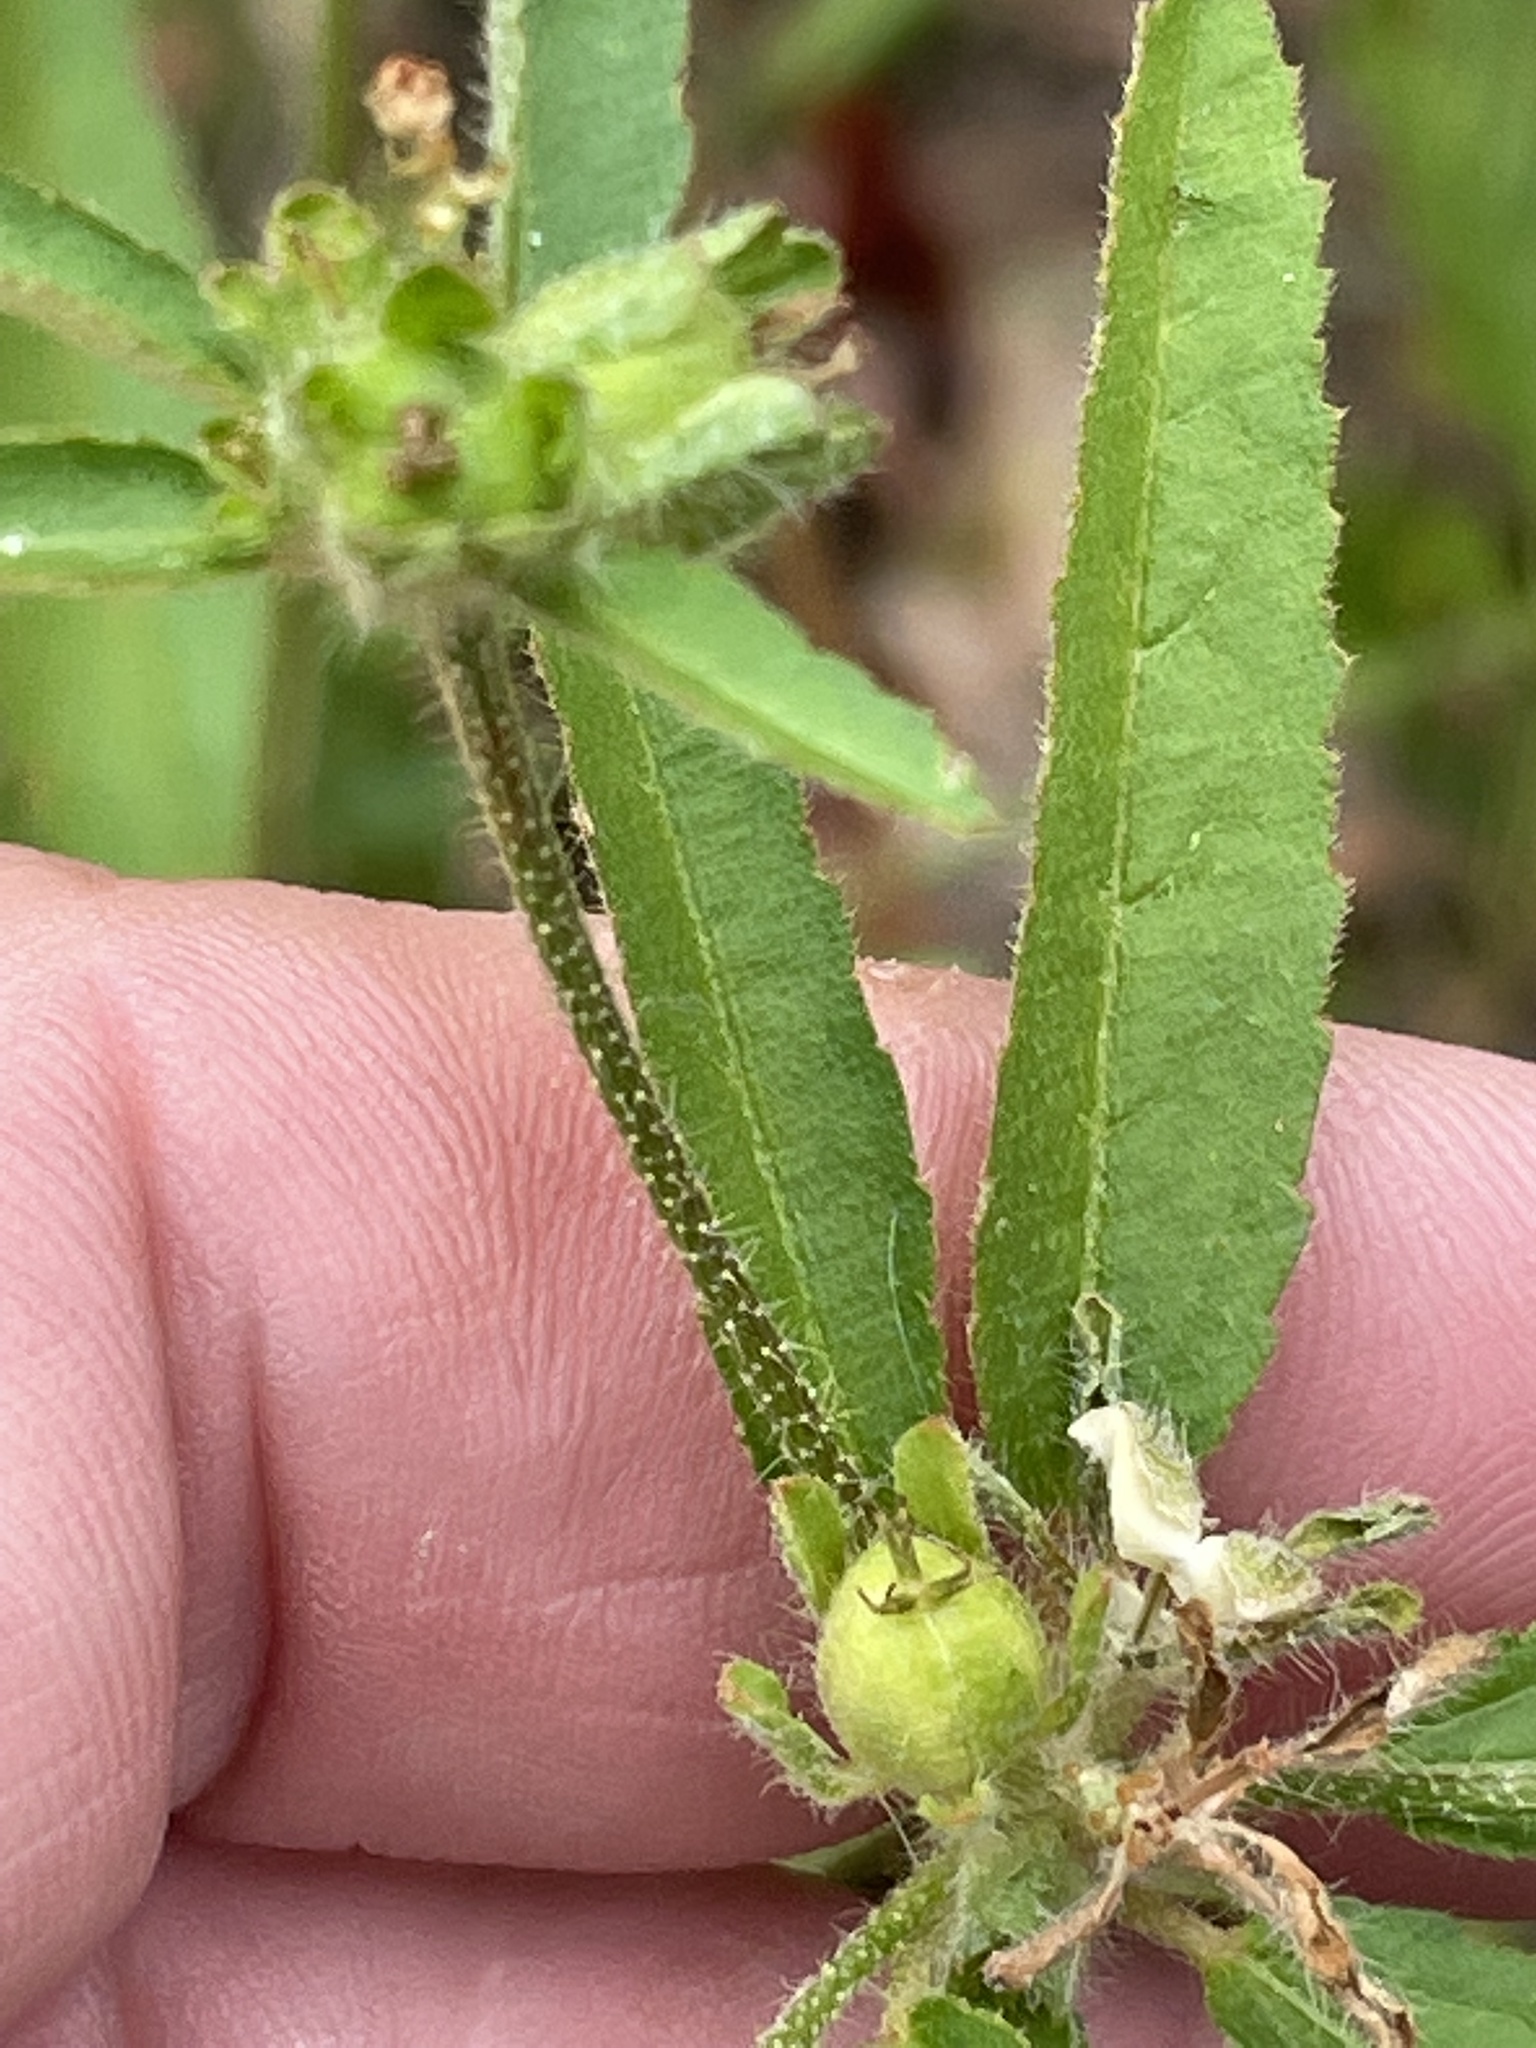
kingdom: Plantae
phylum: Tracheophyta
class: Magnoliopsida
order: Malpighiales
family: Euphorbiaceae
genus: Croton
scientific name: Croton glandulosus
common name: Tropic croton
